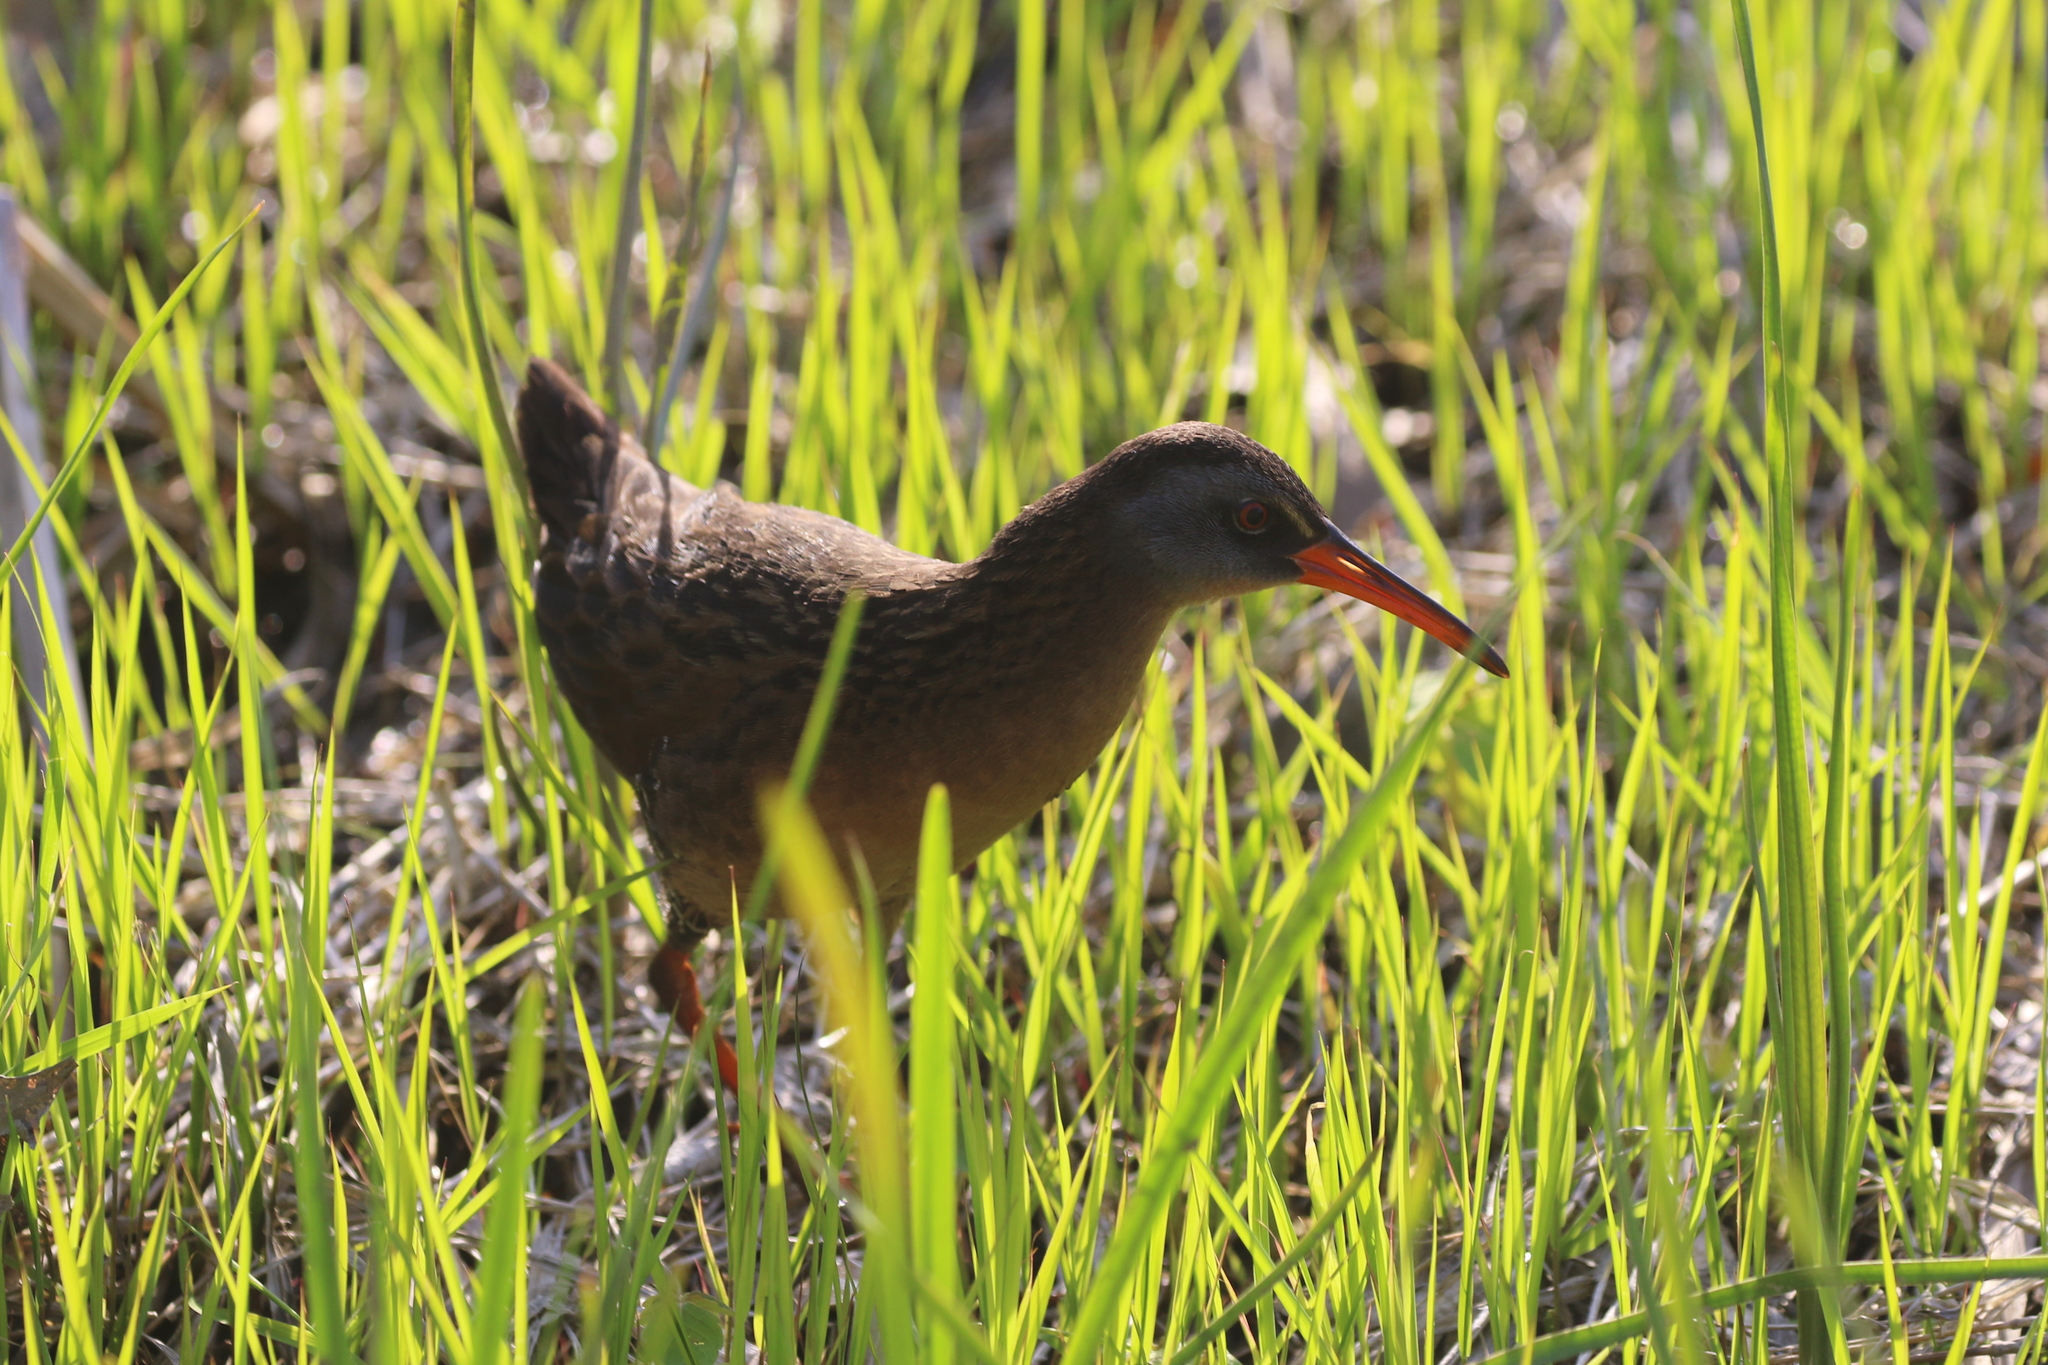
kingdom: Animalia
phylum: Chordata
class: Aves
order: Gruiformes
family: Rallidae
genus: Rallus
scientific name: Rallus limicola
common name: Virginia rail
